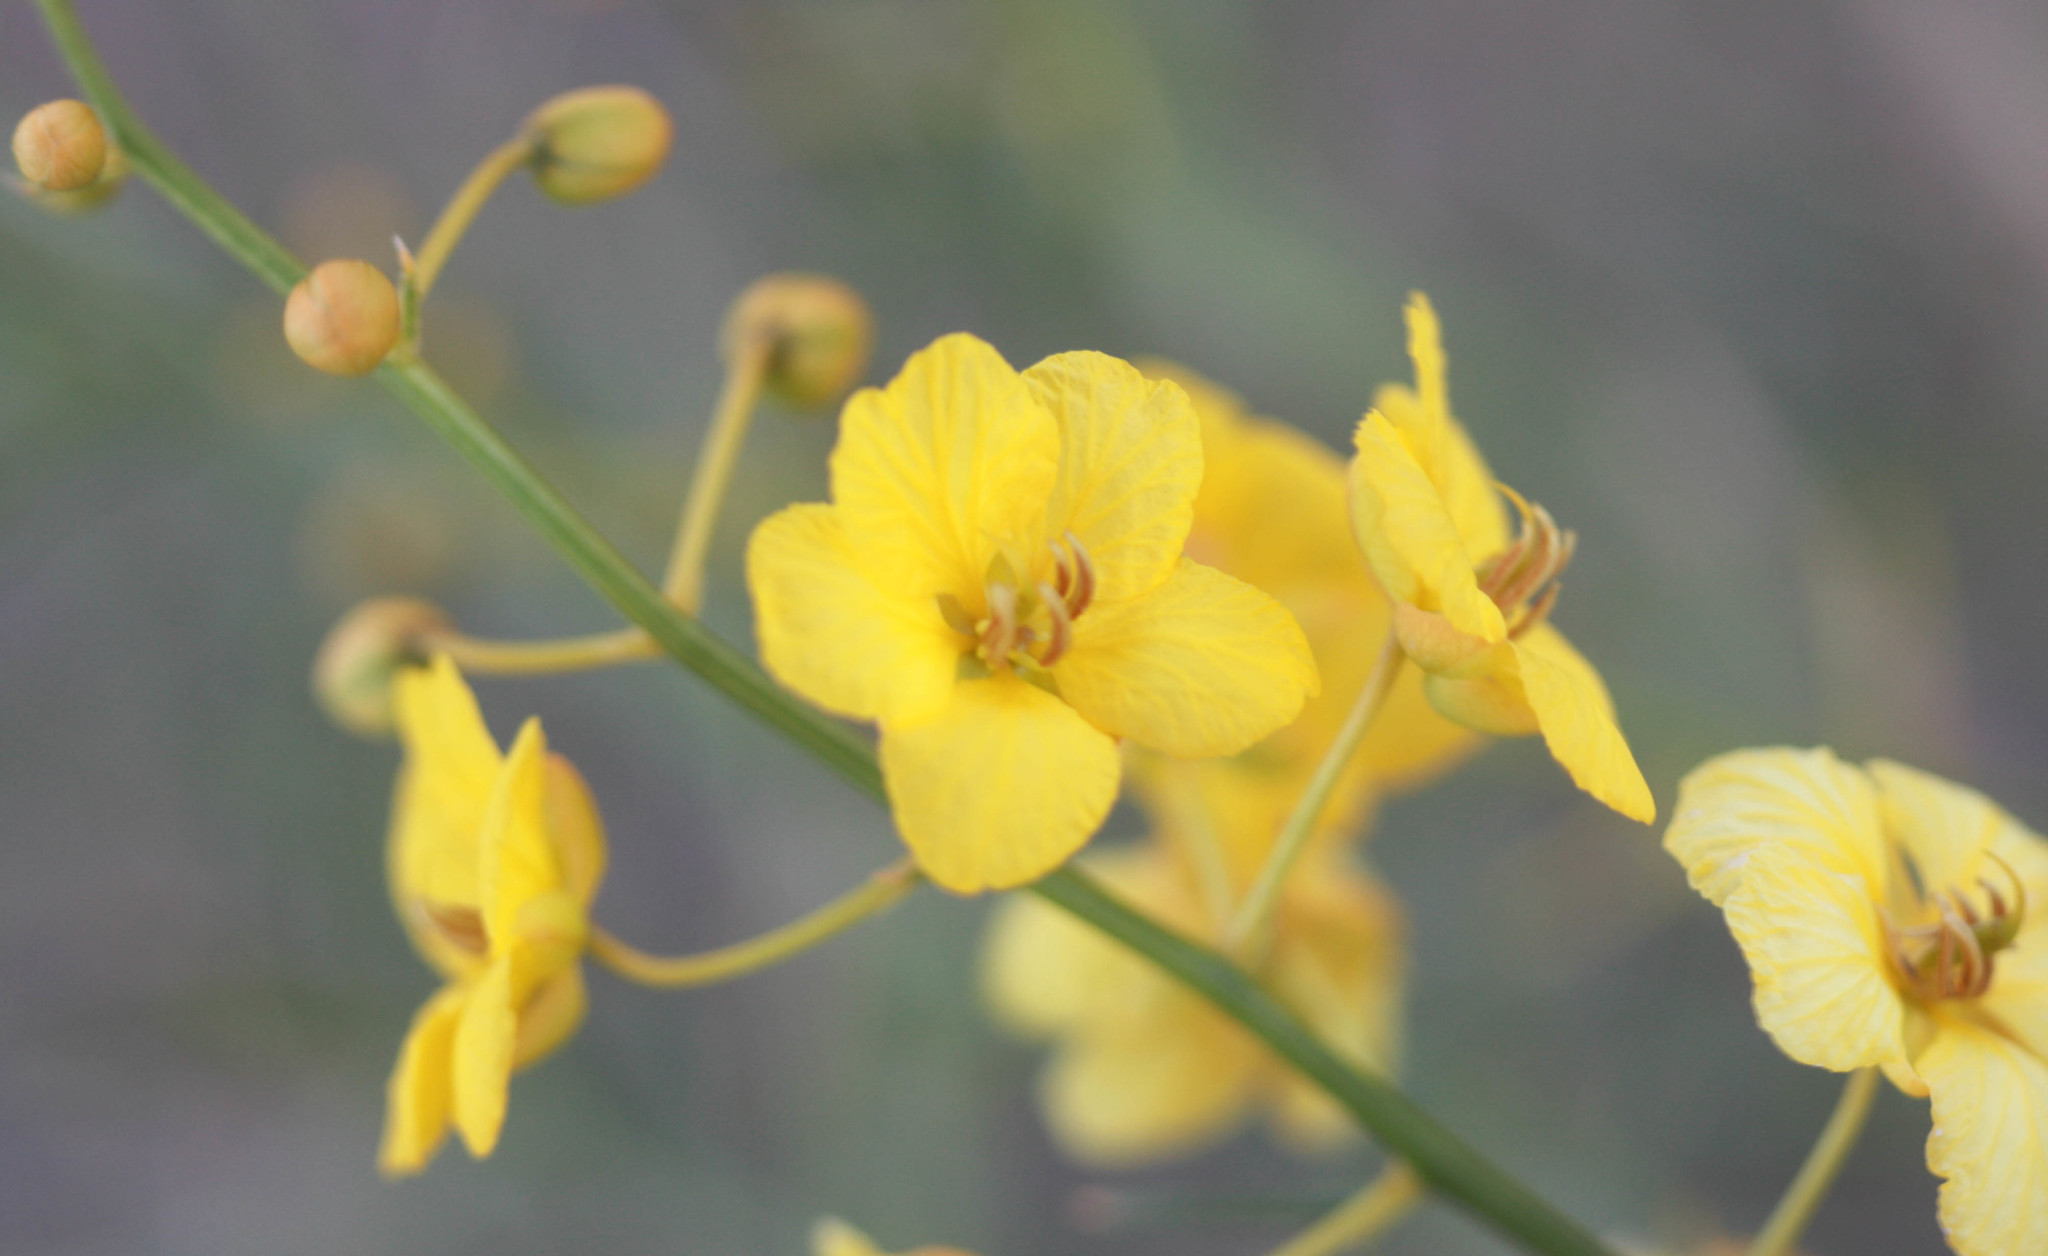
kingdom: Plantae
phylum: Tracheophyta
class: Magnoliopsida
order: Fabales
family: Fabaceae
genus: Senna
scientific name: Senna armata
